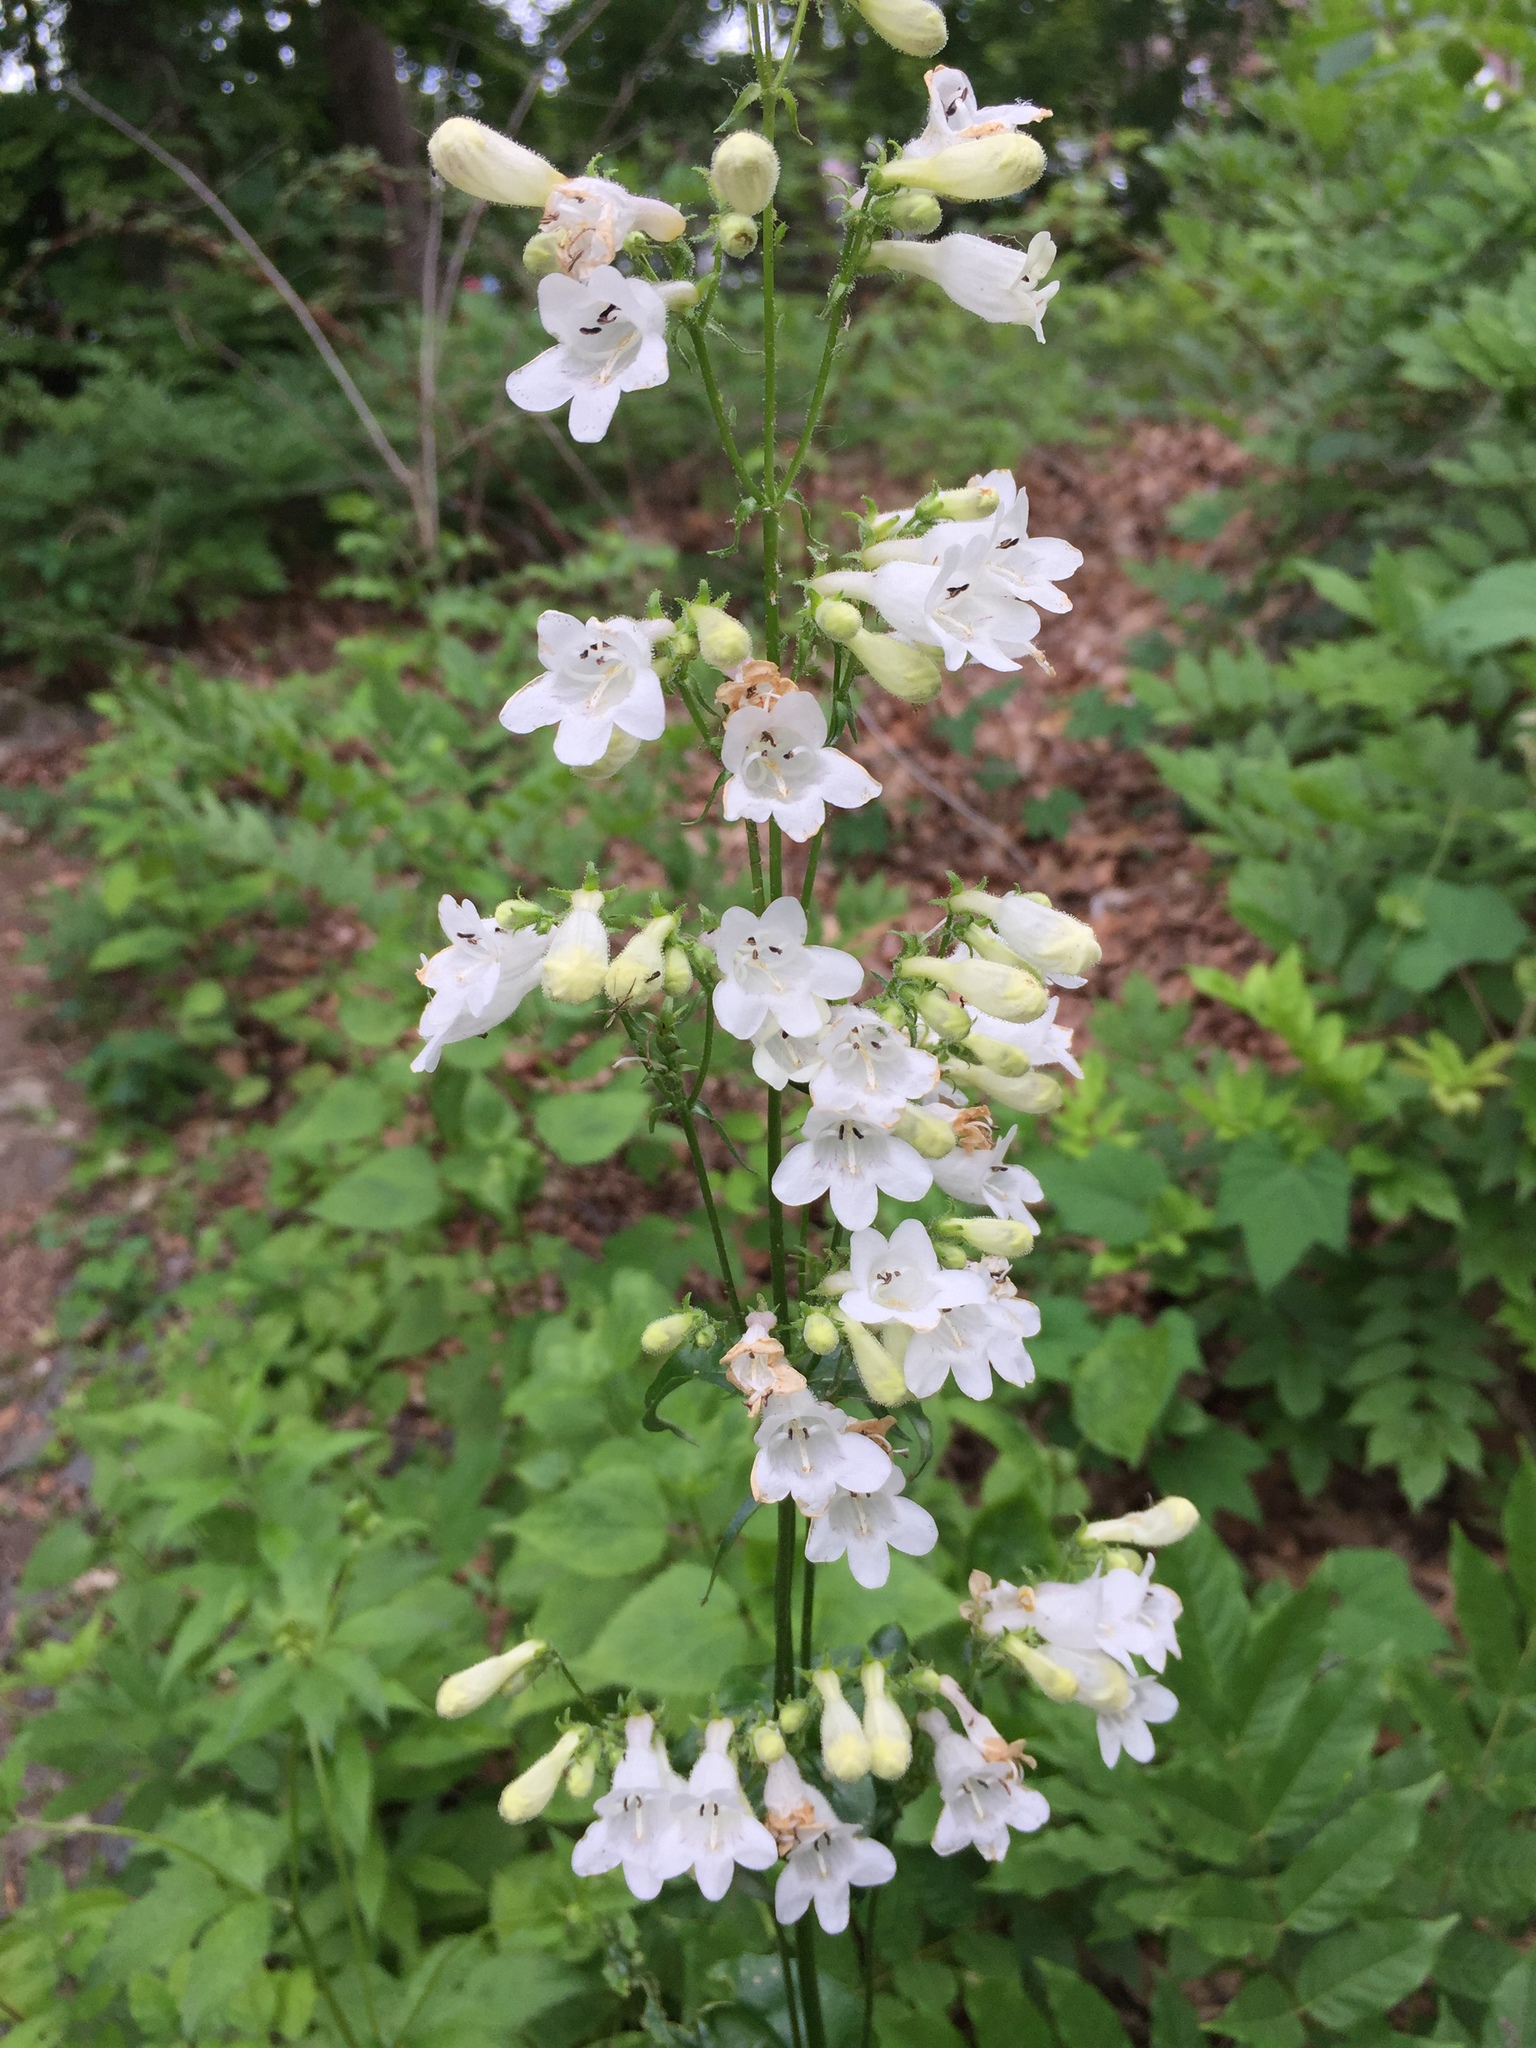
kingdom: Plantae
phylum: Tracheophyta
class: Magnoliopsida
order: Lamiales
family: Plantaginaceae
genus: Penstemon
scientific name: Penstemon digitalis
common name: Foxglove beardtongue
